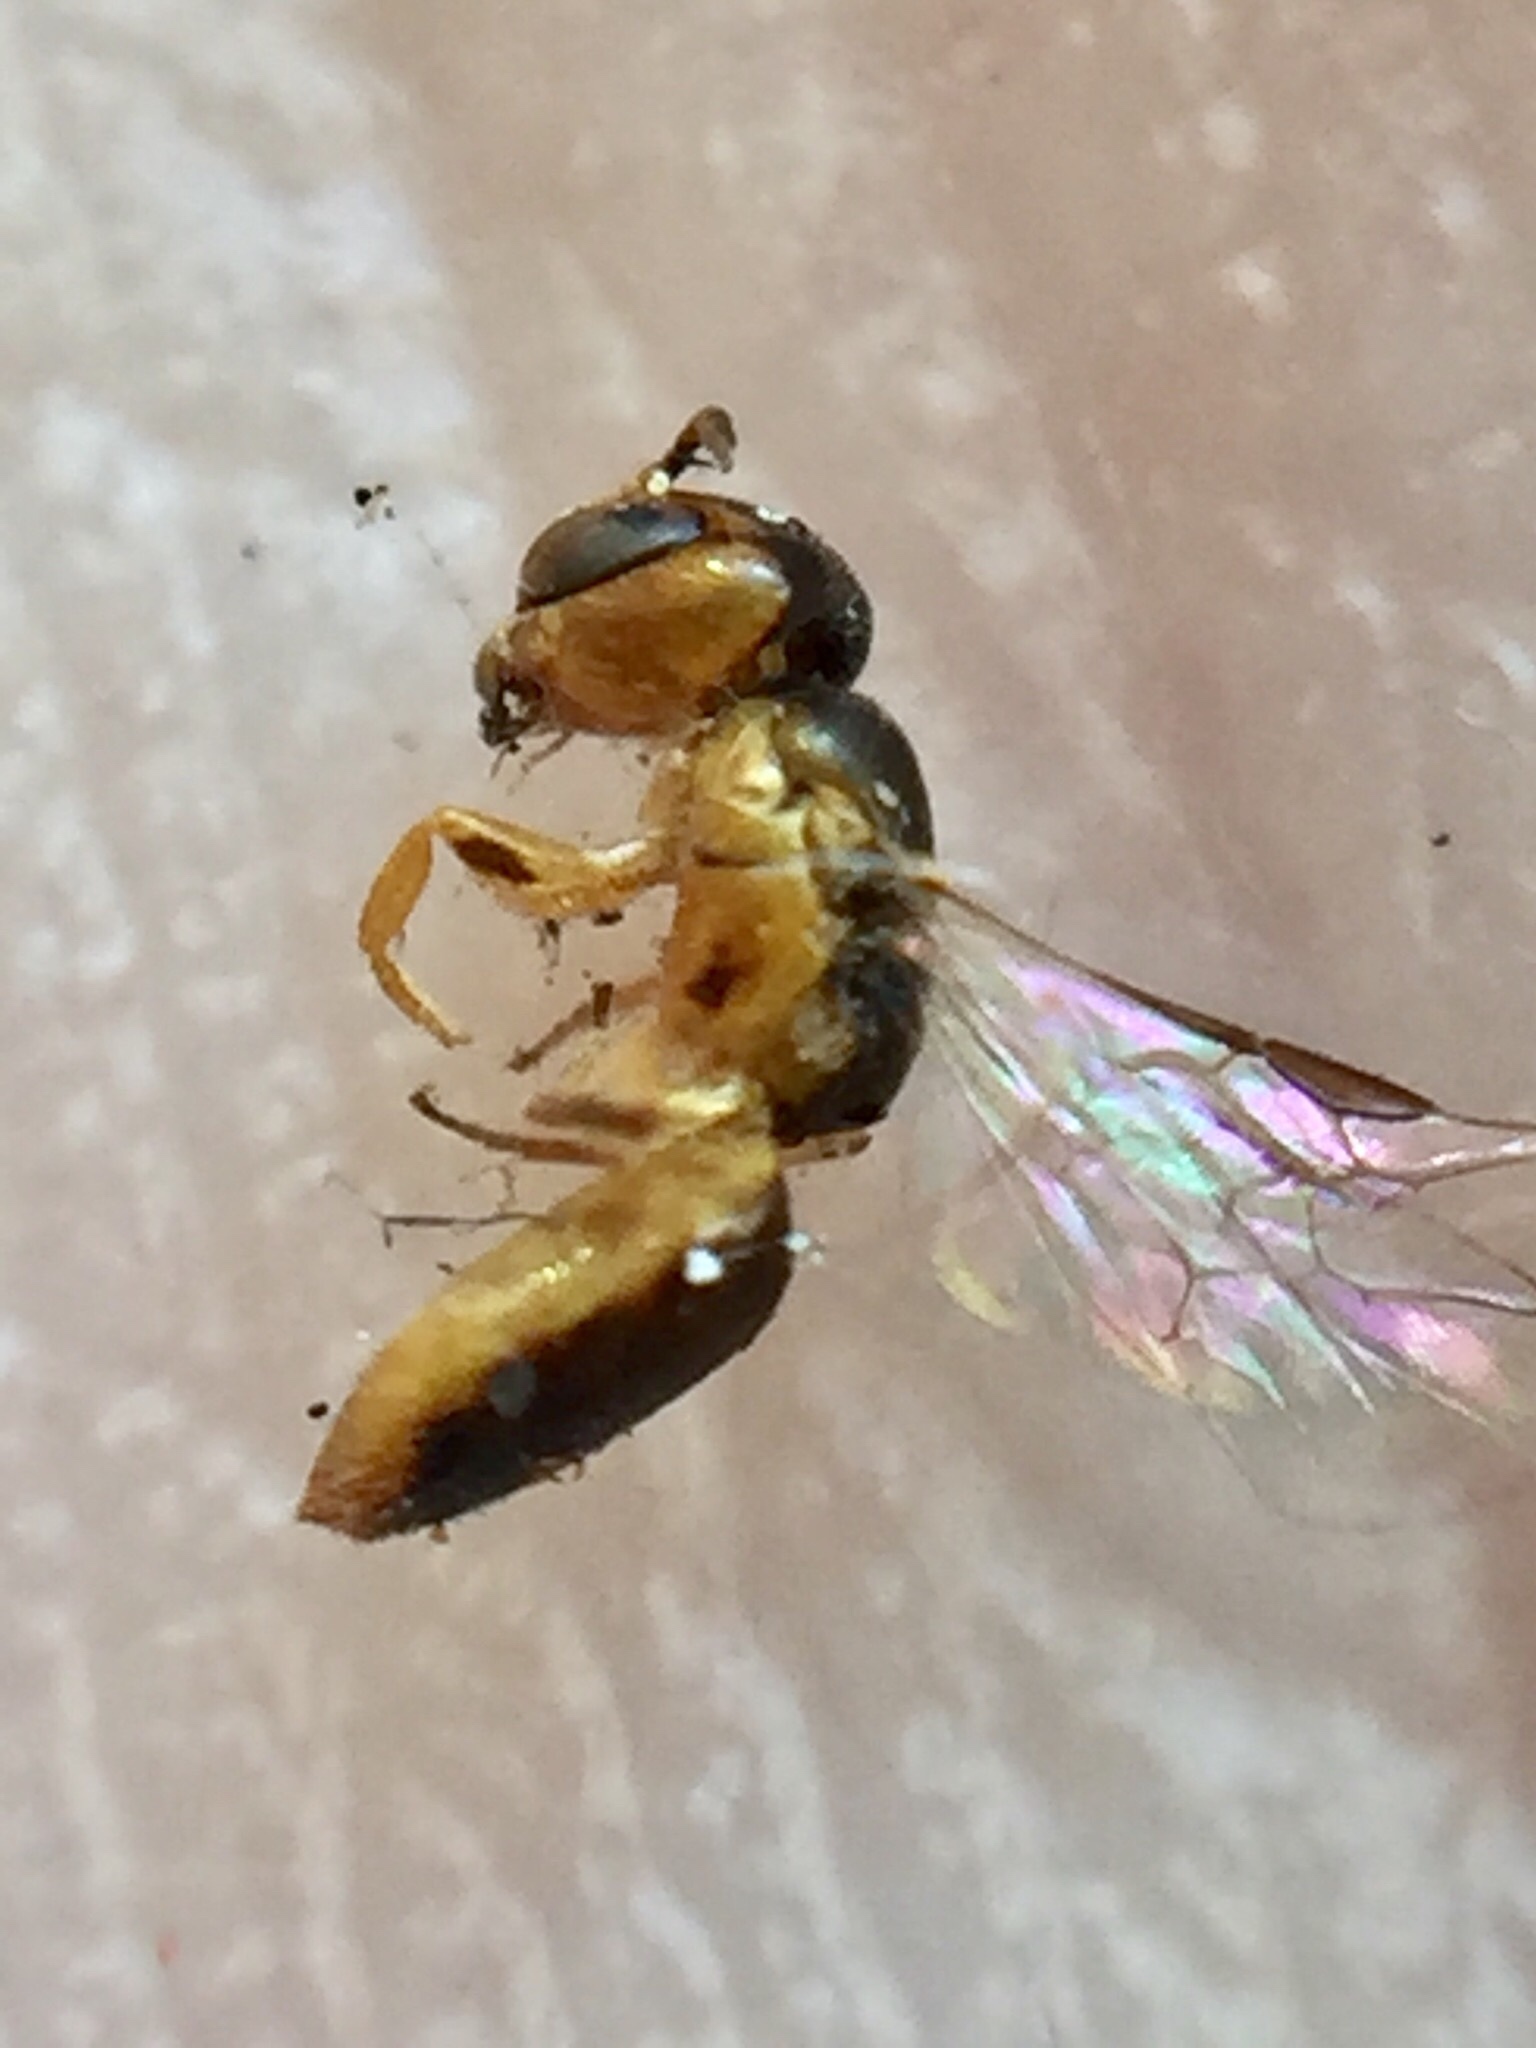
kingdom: Animalia
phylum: Arthropoda
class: Insecta
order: Hymenoptera
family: Colletidae
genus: Euryglossina
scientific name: Euryglossina hypochroma
